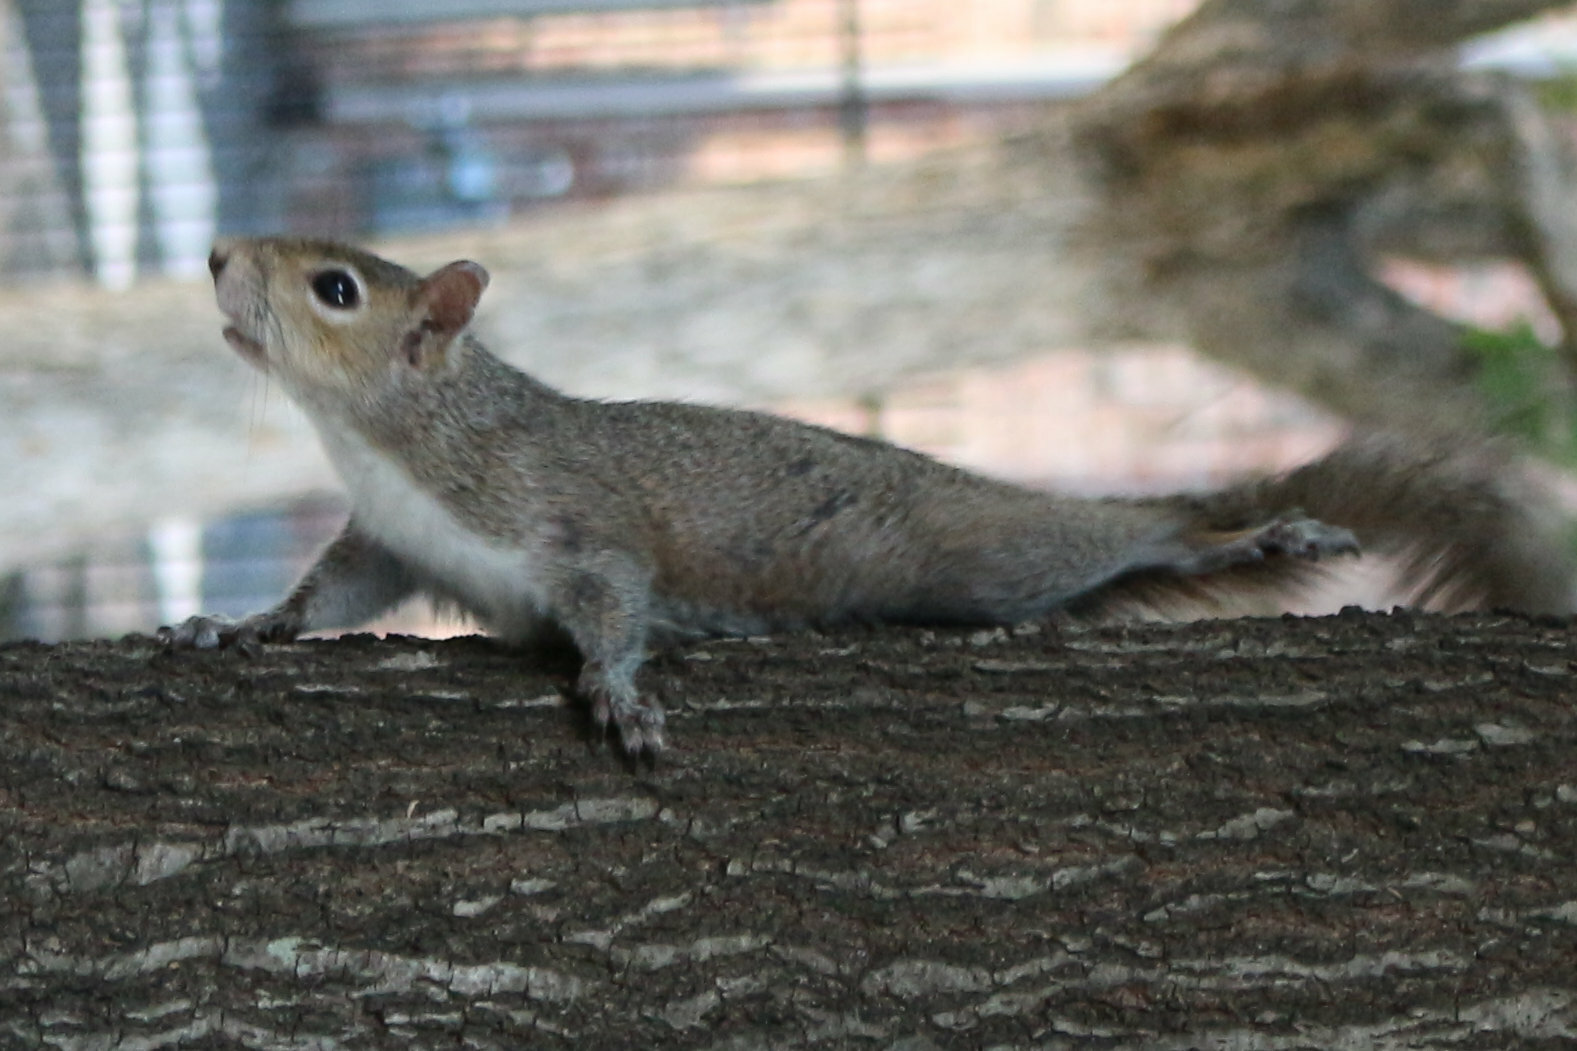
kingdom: Animalia
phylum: Chordata
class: Mammalia
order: Rodentia
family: Sciuridae
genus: Sciurus
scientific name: Sciurus carolinensis
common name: Eastern gray squirrel
